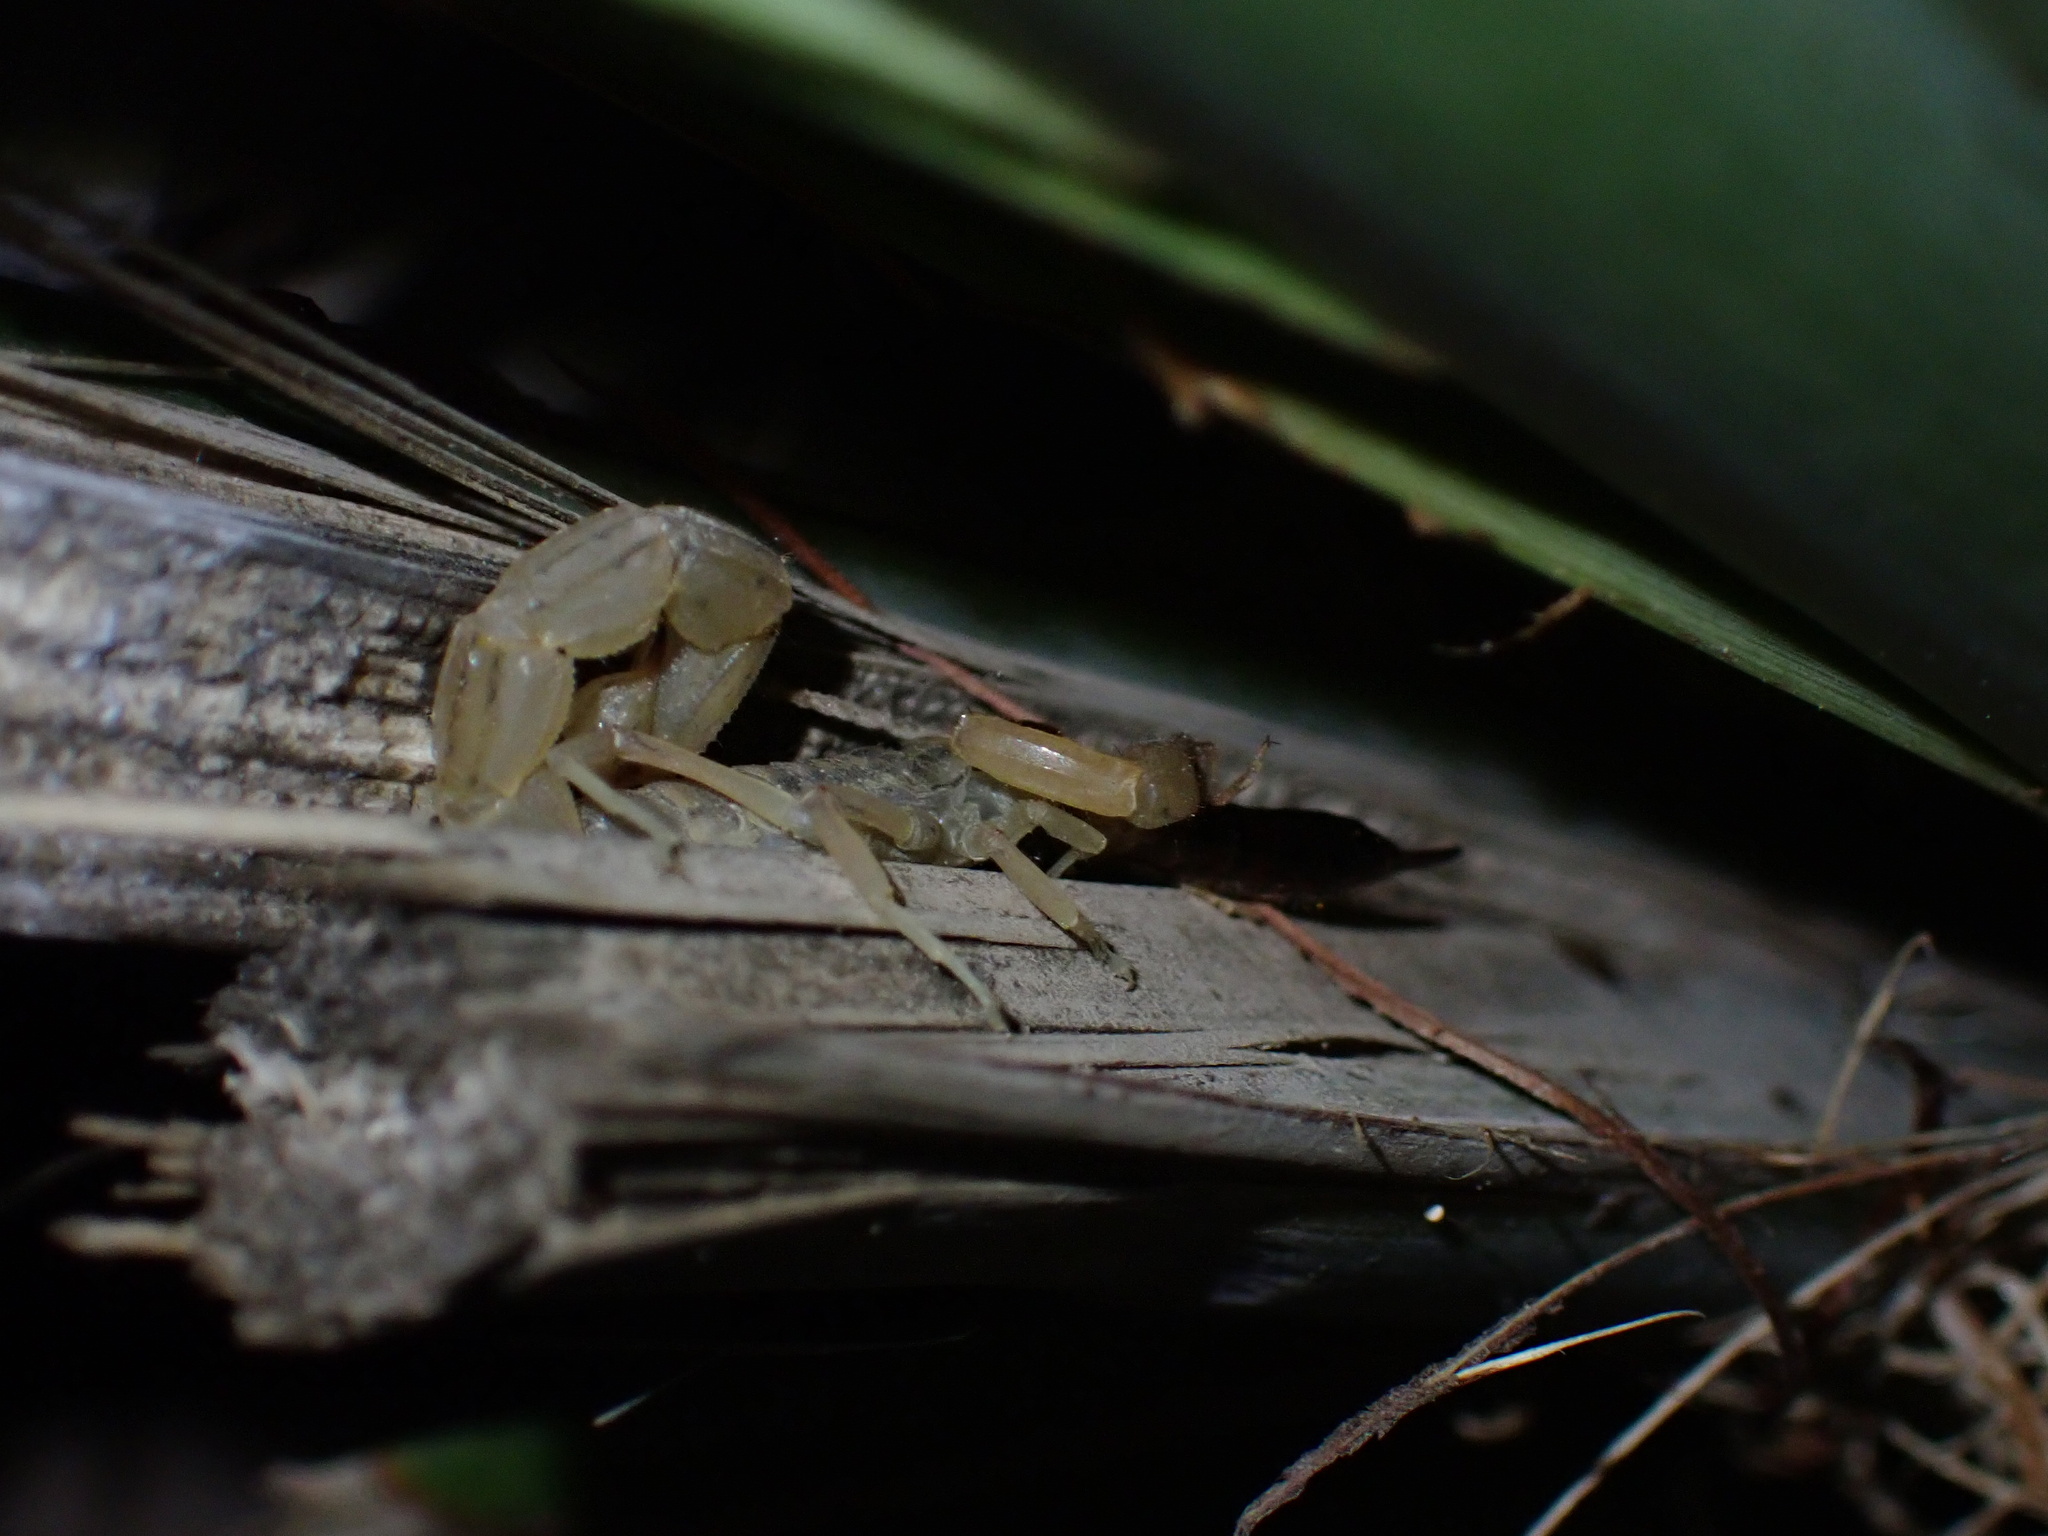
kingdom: Animalia
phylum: Arthropoda
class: Arachnida
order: Scorpiones
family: Buthidae
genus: Mesobuthus
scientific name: Mesobuthus mirshamsii
